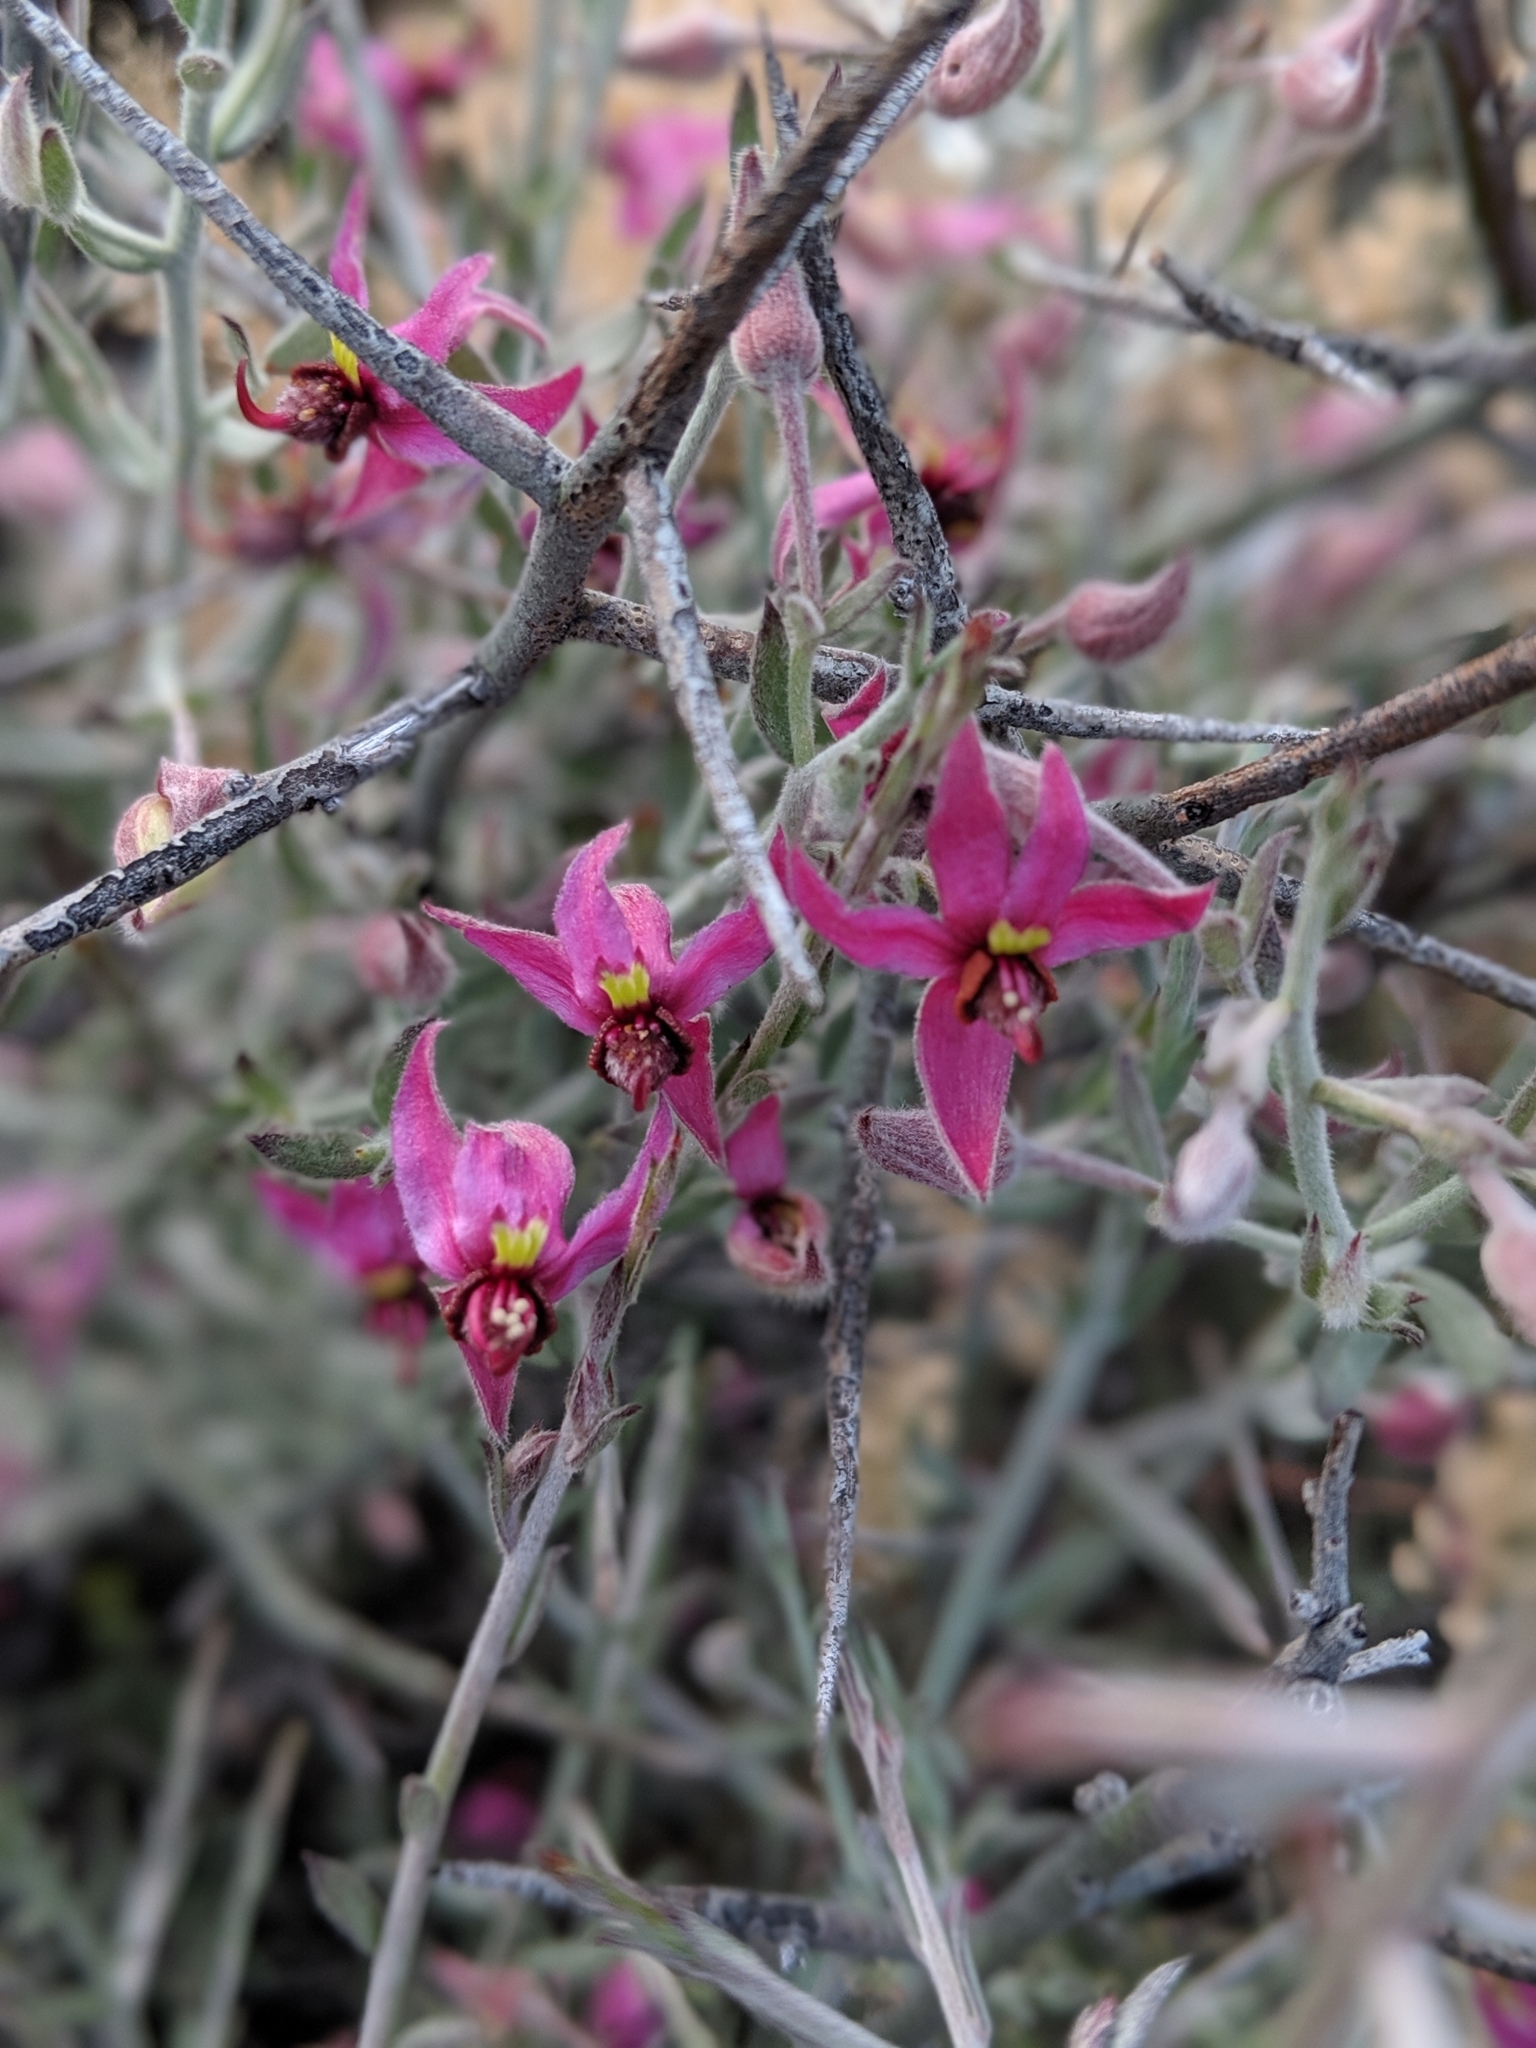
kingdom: Plantae
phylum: Tracheophyta
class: Magnoliopsida
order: Zygophyllales
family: Krameriaceae
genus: Krameria
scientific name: Krameria bicolor
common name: White ratany
